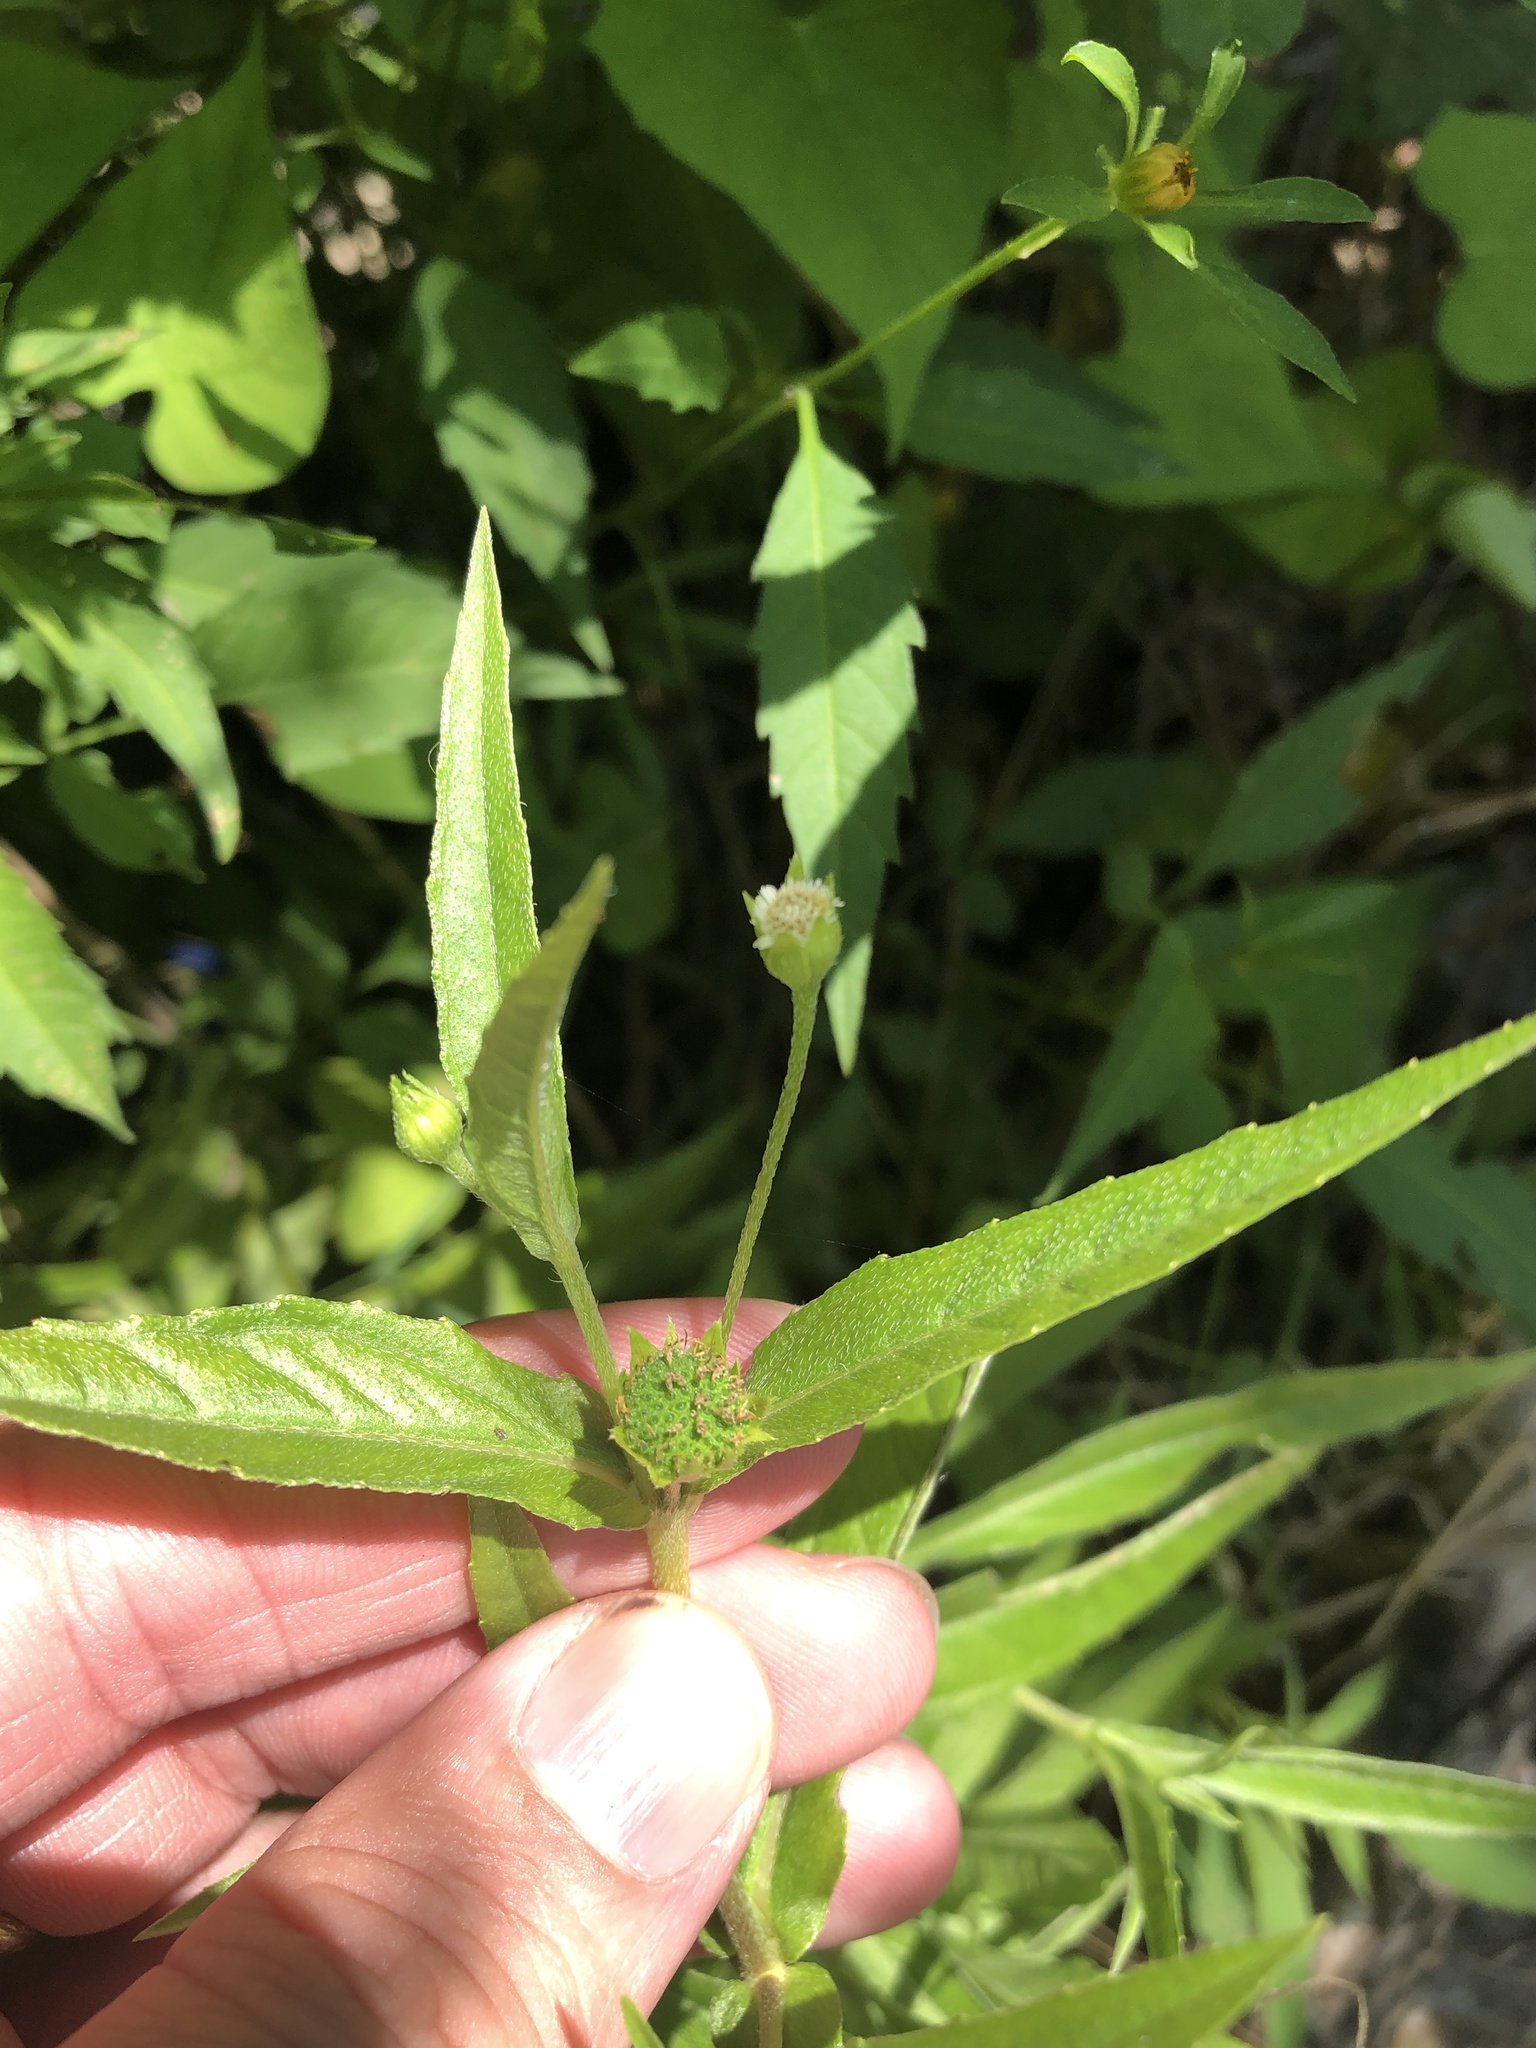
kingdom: Plantae
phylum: Tracheophyta
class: Magnoliopsida
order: Asterales
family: Asteraceae
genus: Eclipta
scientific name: Eclipta prostrata
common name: False daisy
